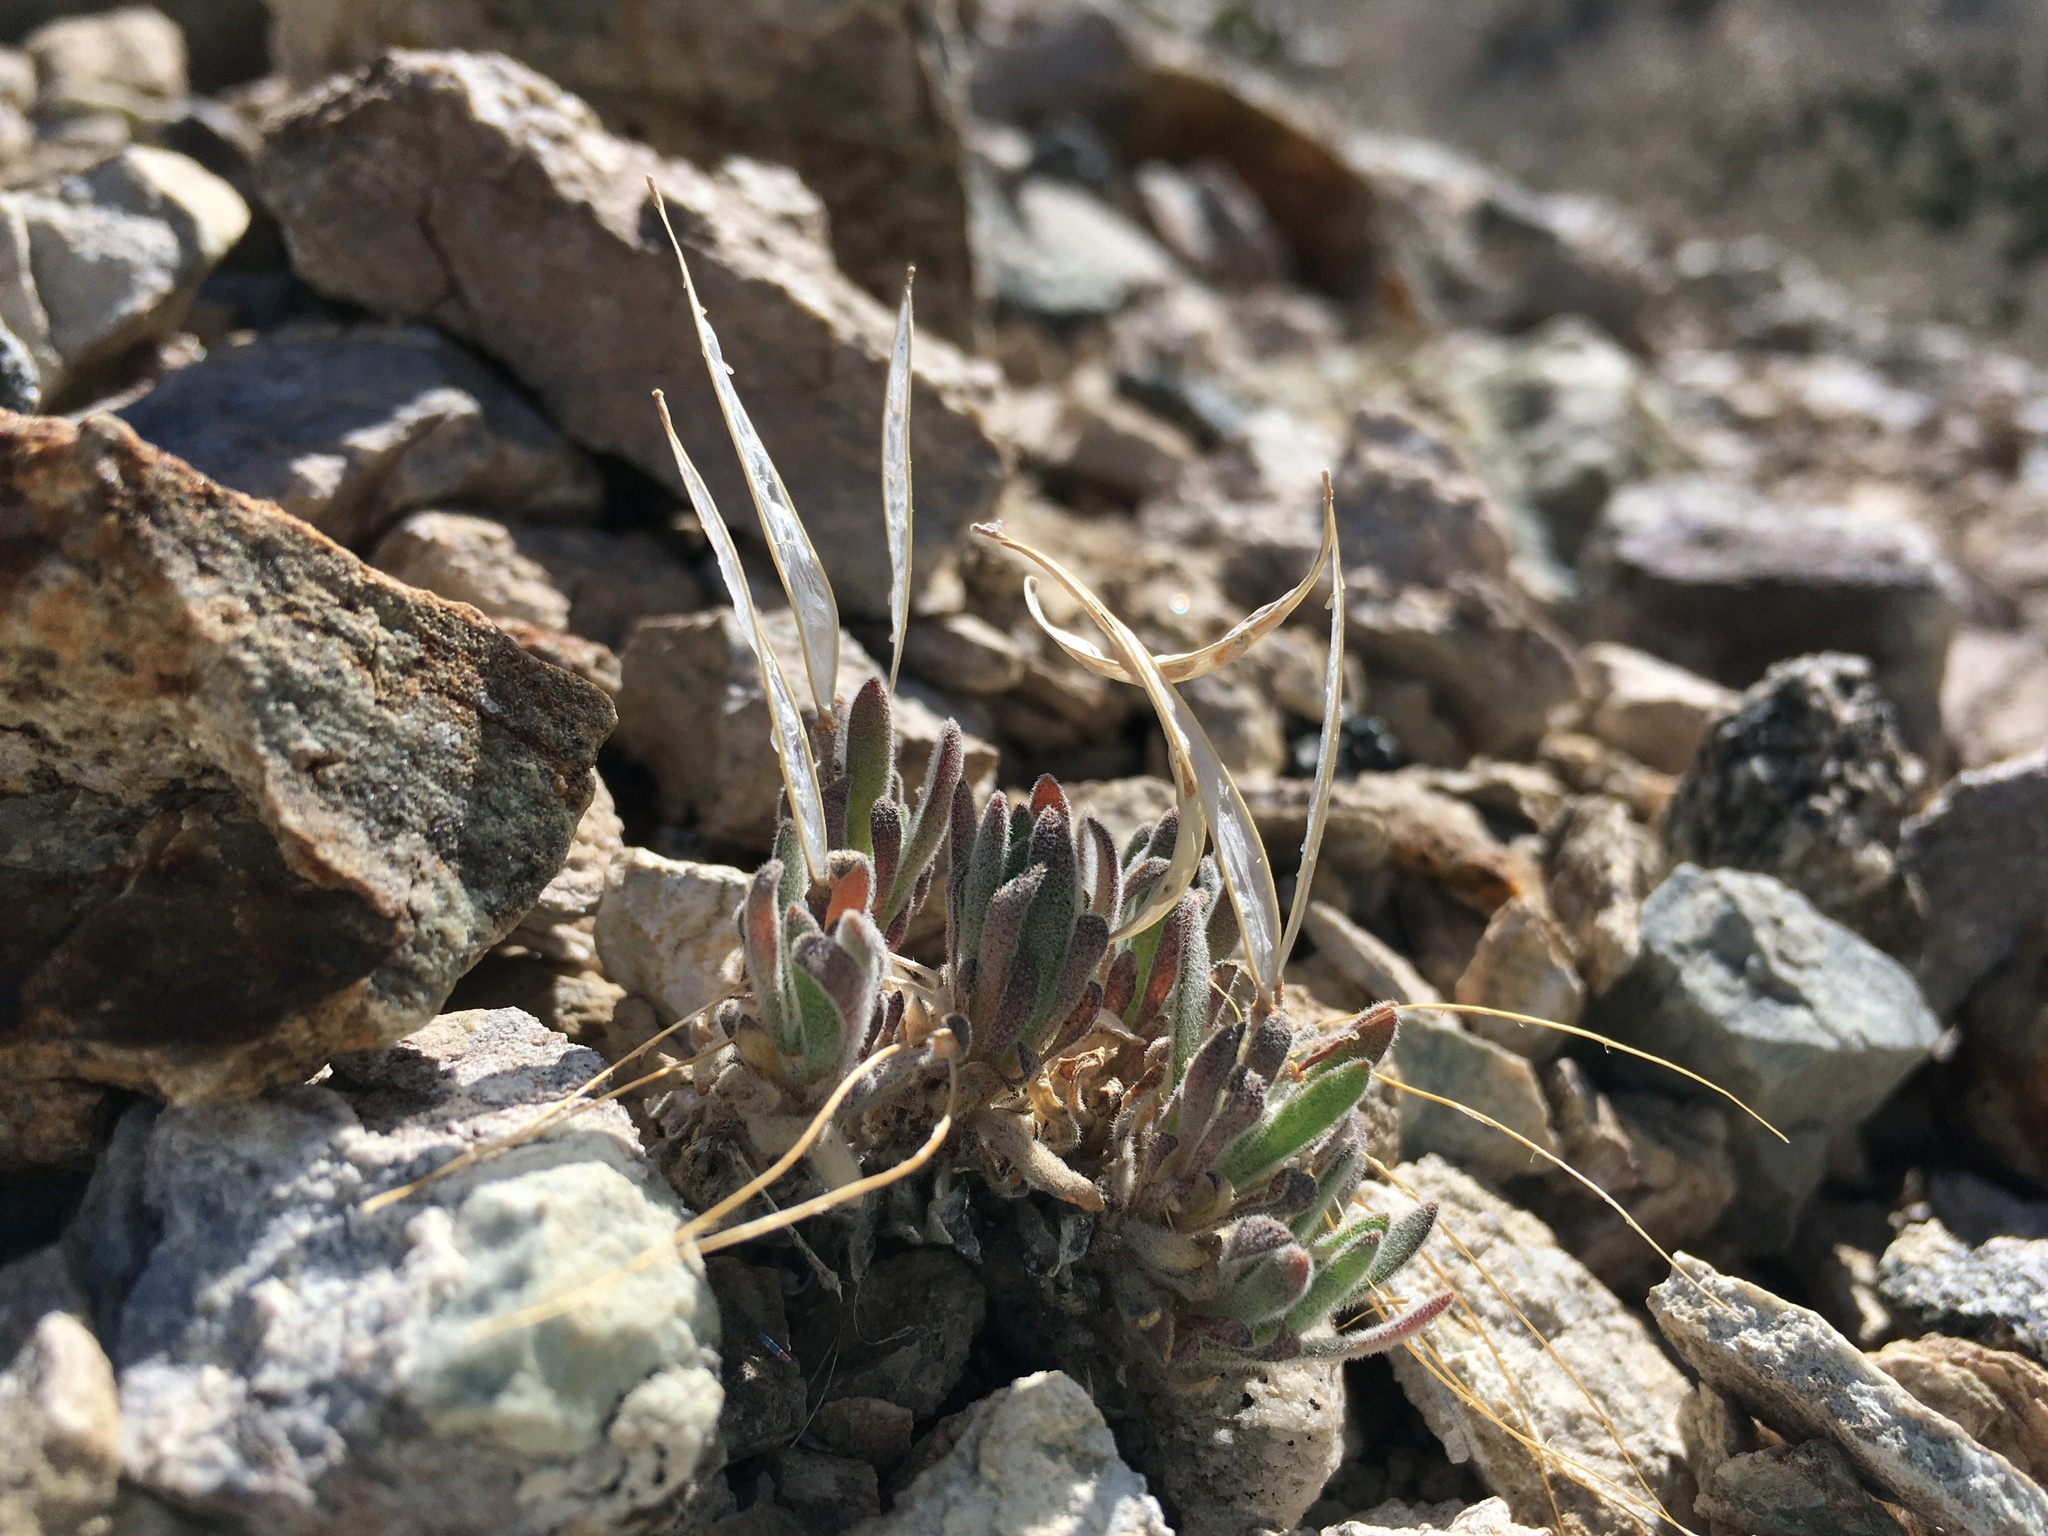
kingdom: Plantae
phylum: Tracheophyta
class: Magnoliopsida
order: Brassicales
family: Brassicaceae
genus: Anelsonia
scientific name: Anelsonia eurycarpa
